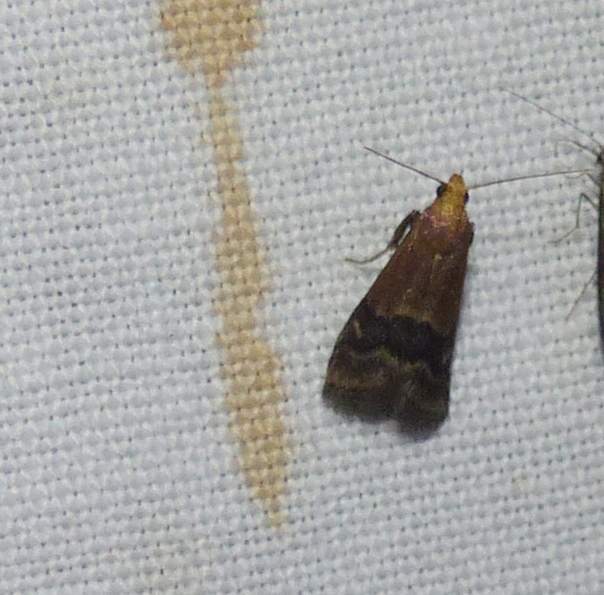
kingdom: Animalia
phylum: Arthropoda
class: Insecta
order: Lepidoptera
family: Pyralidae
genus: Eulogia
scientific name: Eulogia ochrifrontella
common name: Broad-banded eulogia moth
